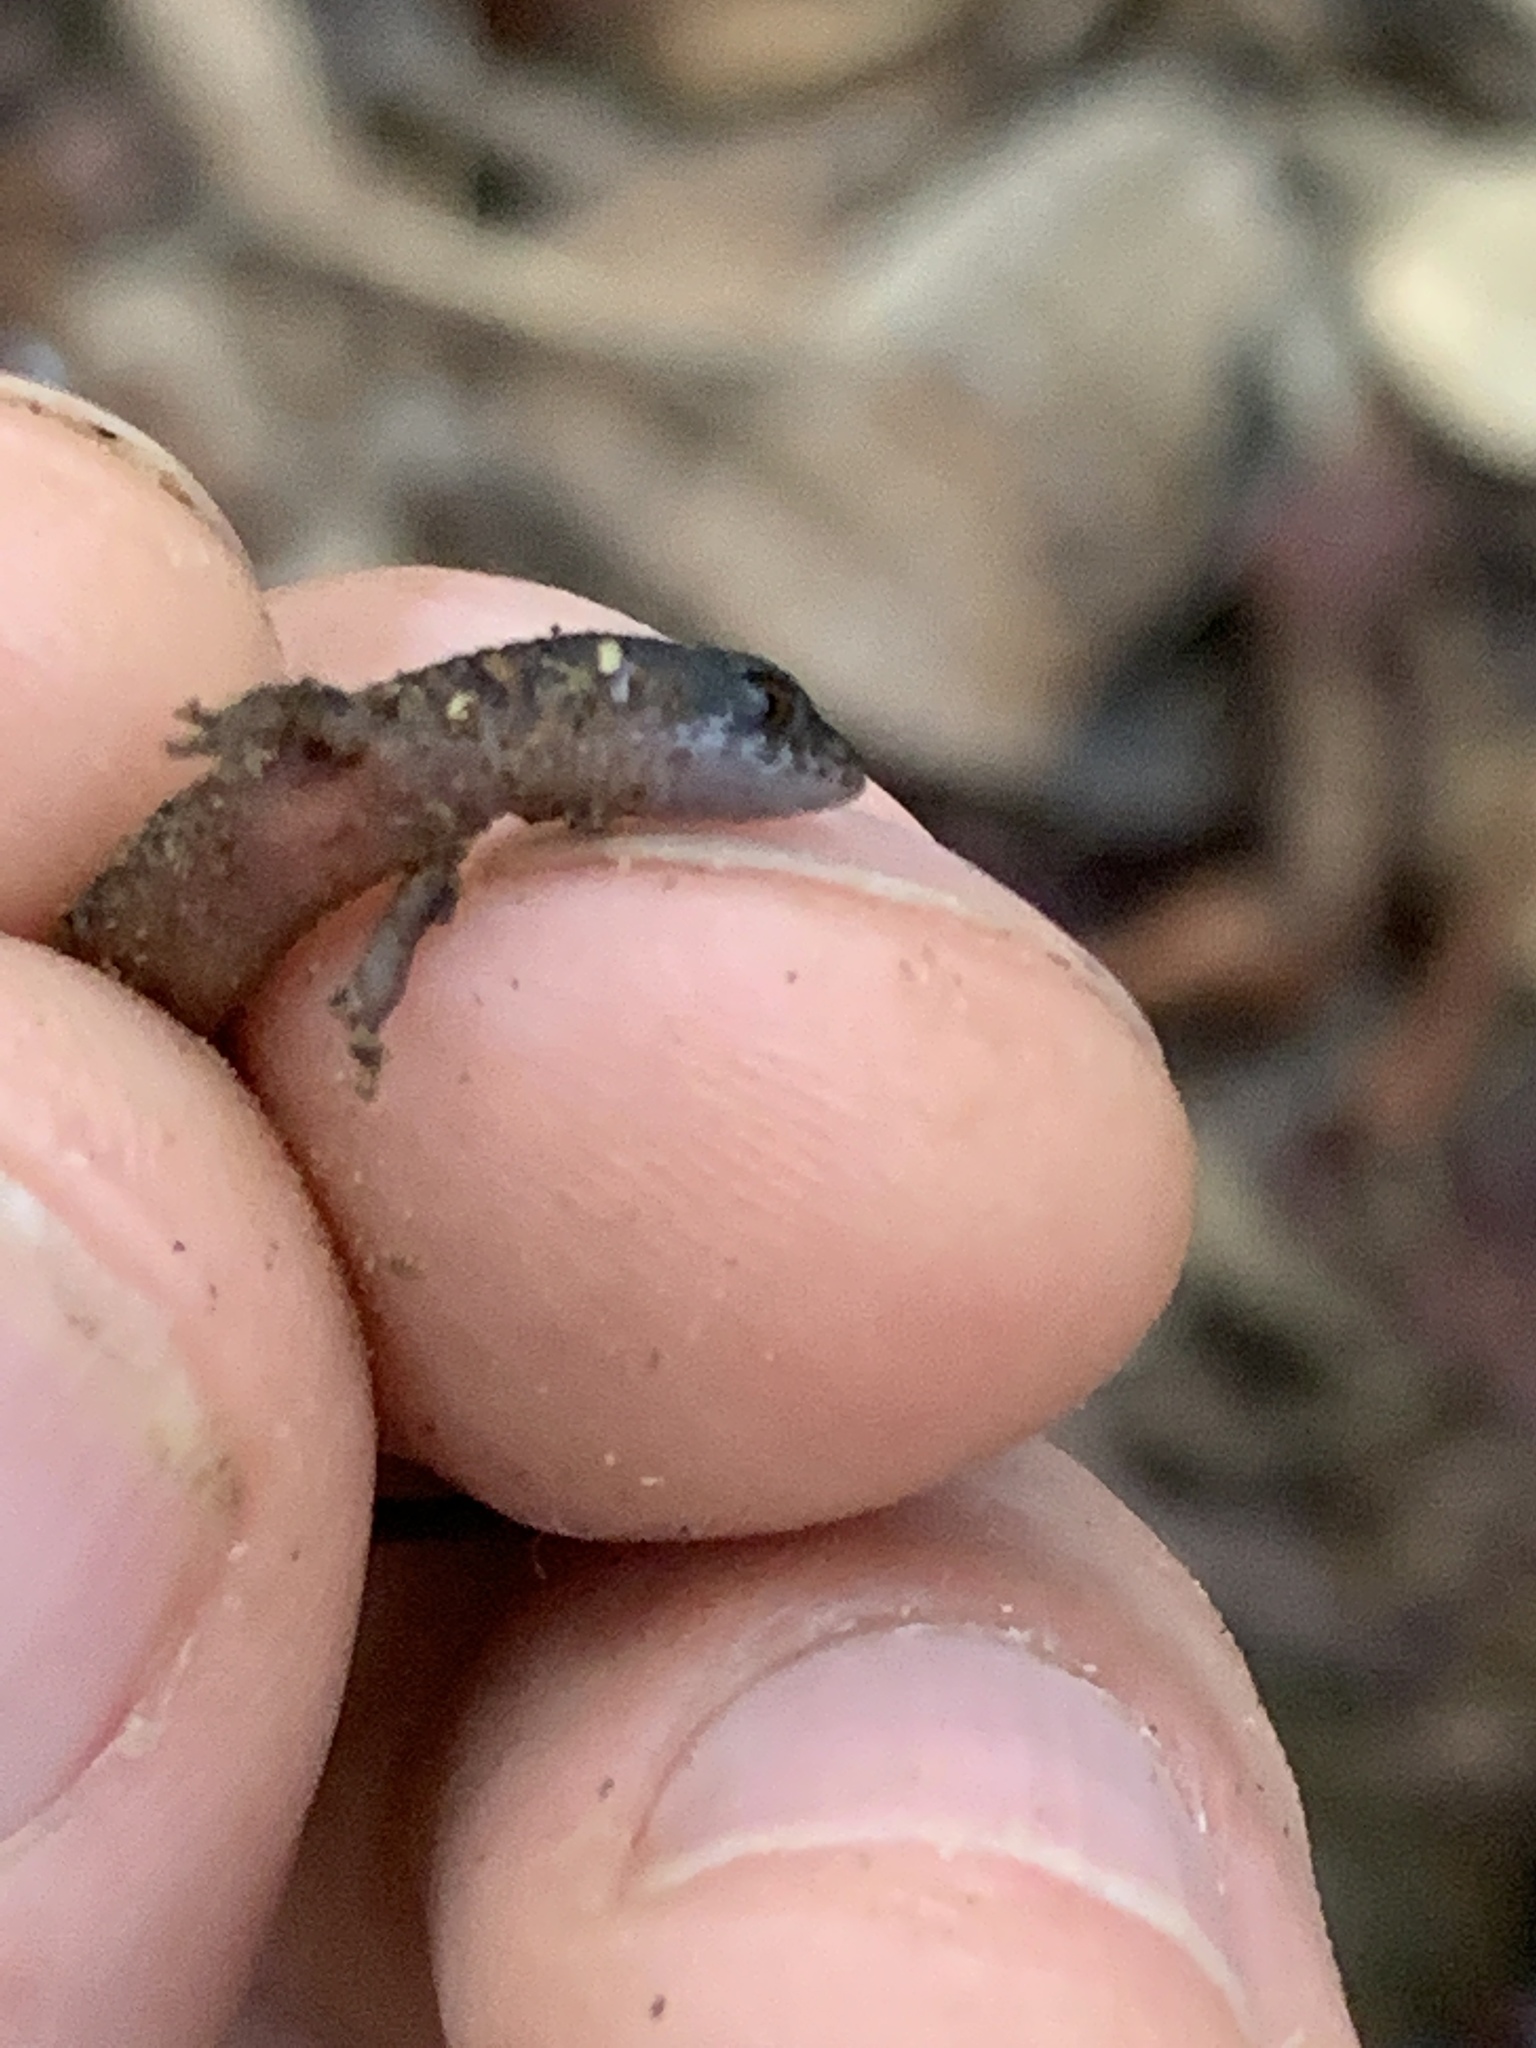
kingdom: Animalia
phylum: Chordata
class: Squamata
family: Gymnophthalmidae
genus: Loxopholis
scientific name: Loxopholis southi
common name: Northern spectacled lizard
